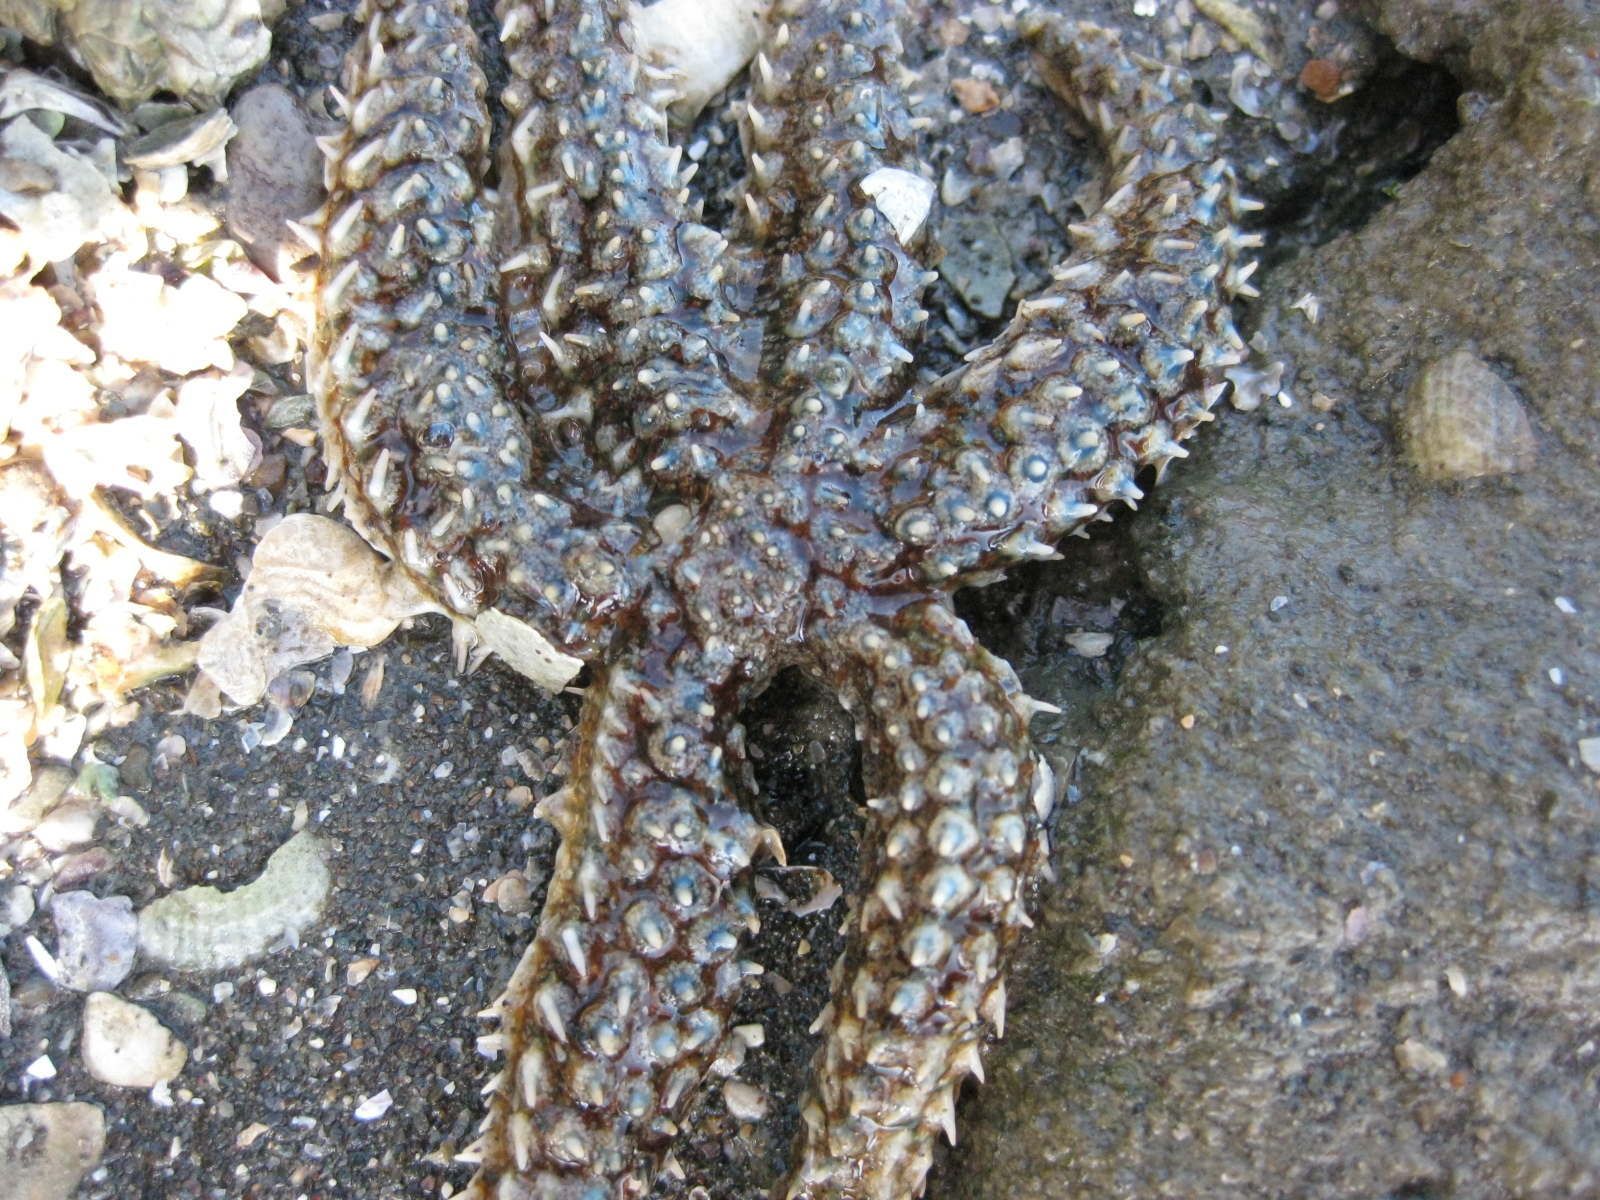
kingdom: Animalia
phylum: Echinodermata
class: Asteroidea
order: Forcipulatida
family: Asteriidae
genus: Coscinasterias
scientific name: Coscinasterias muricata
